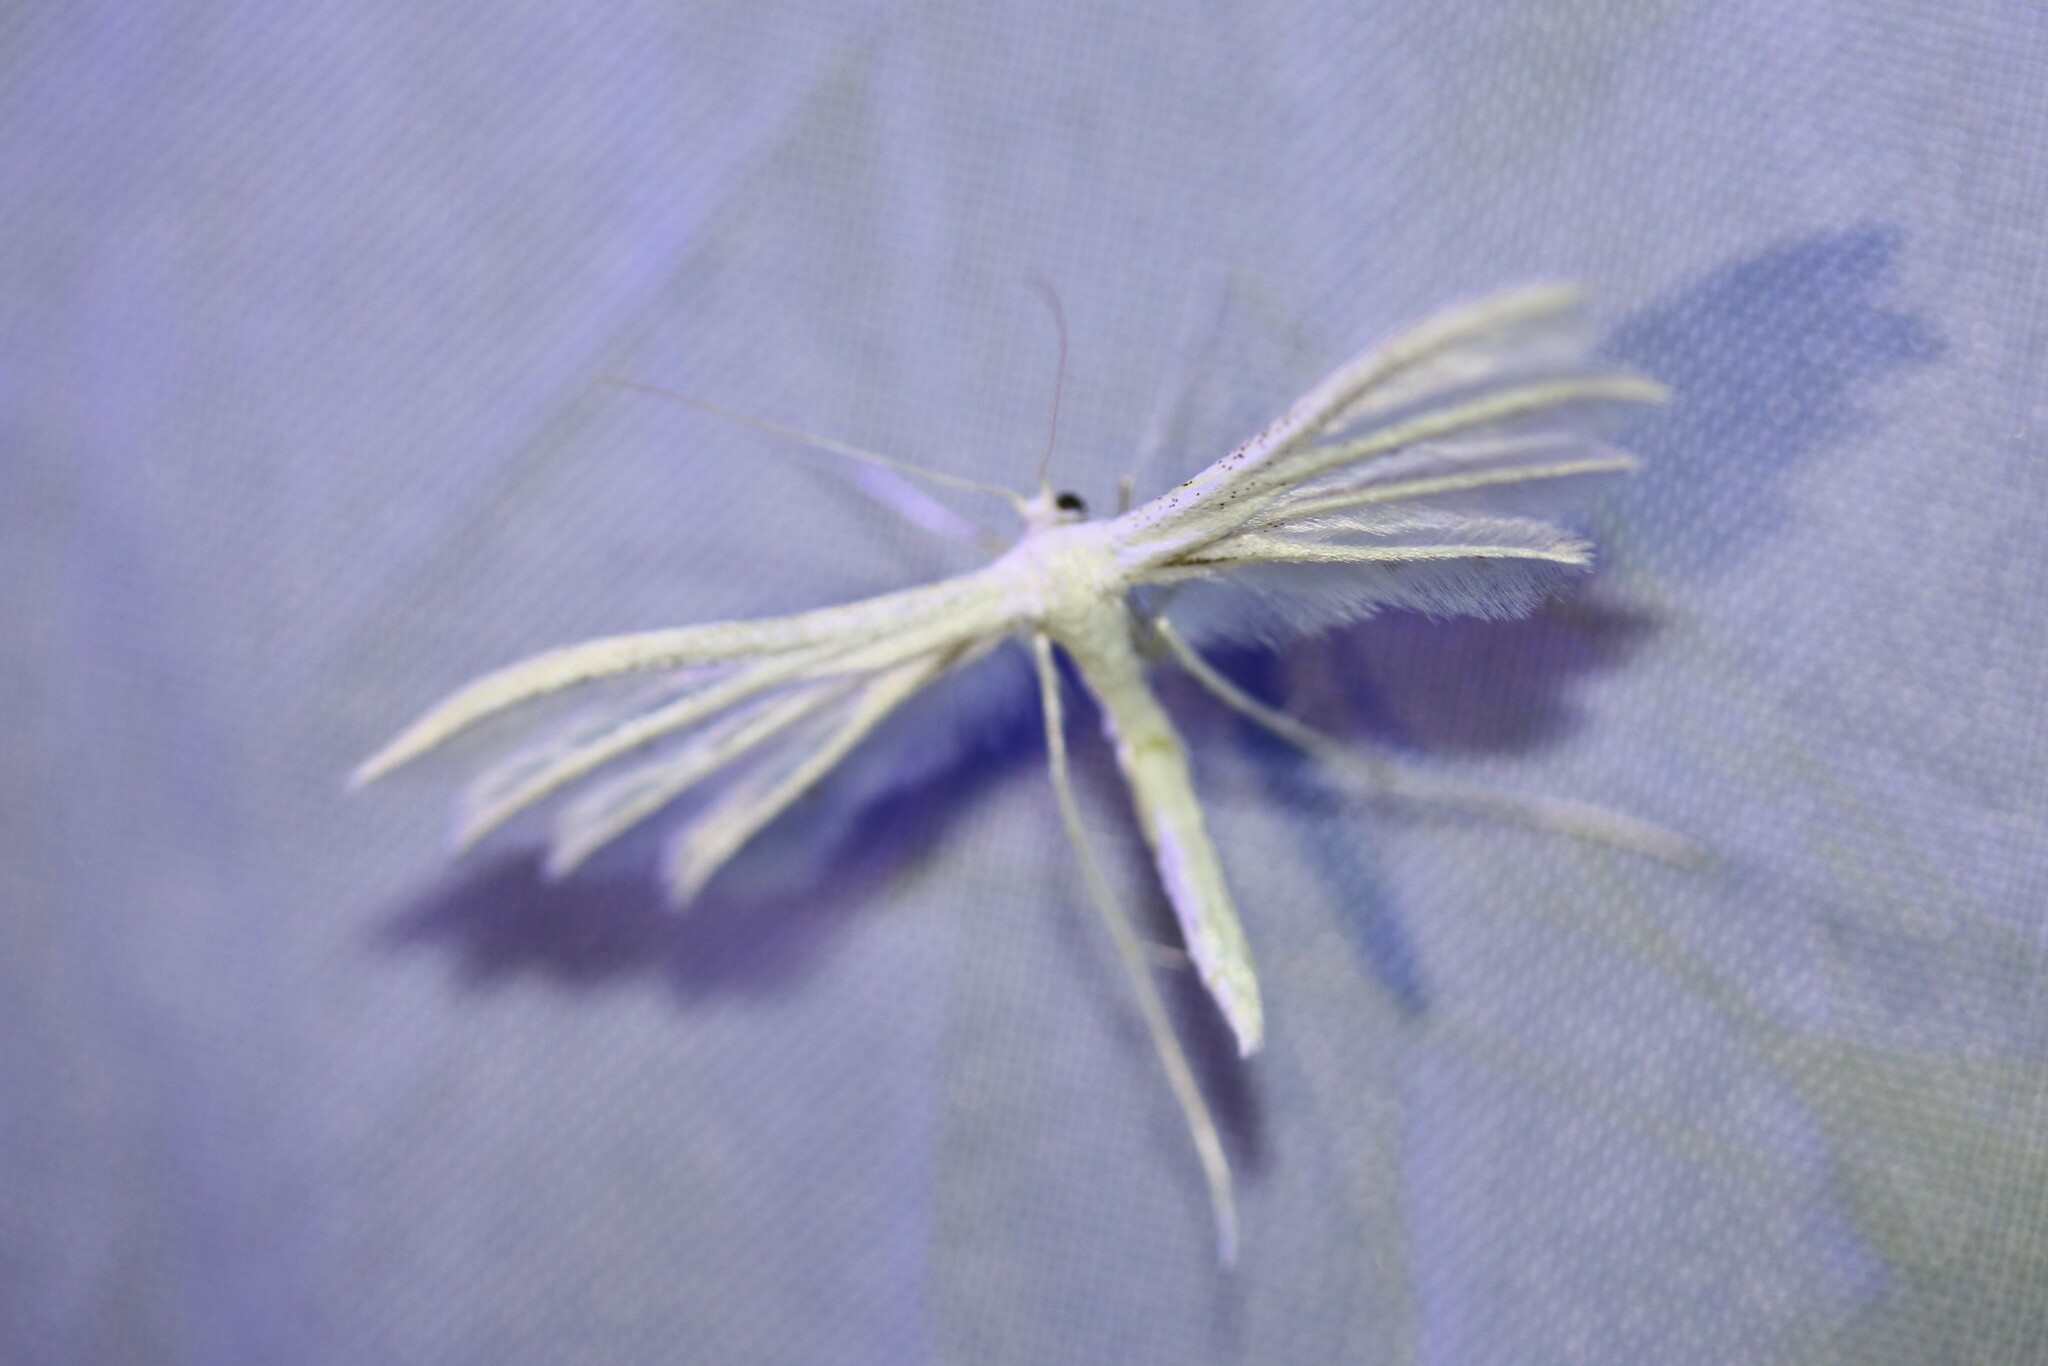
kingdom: Animalia
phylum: Arthropoda
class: Insecta
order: Lepidoptera
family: Pterophoridae
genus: Pterophorus
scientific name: Pterophorus pentadactyla
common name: White plume moth
